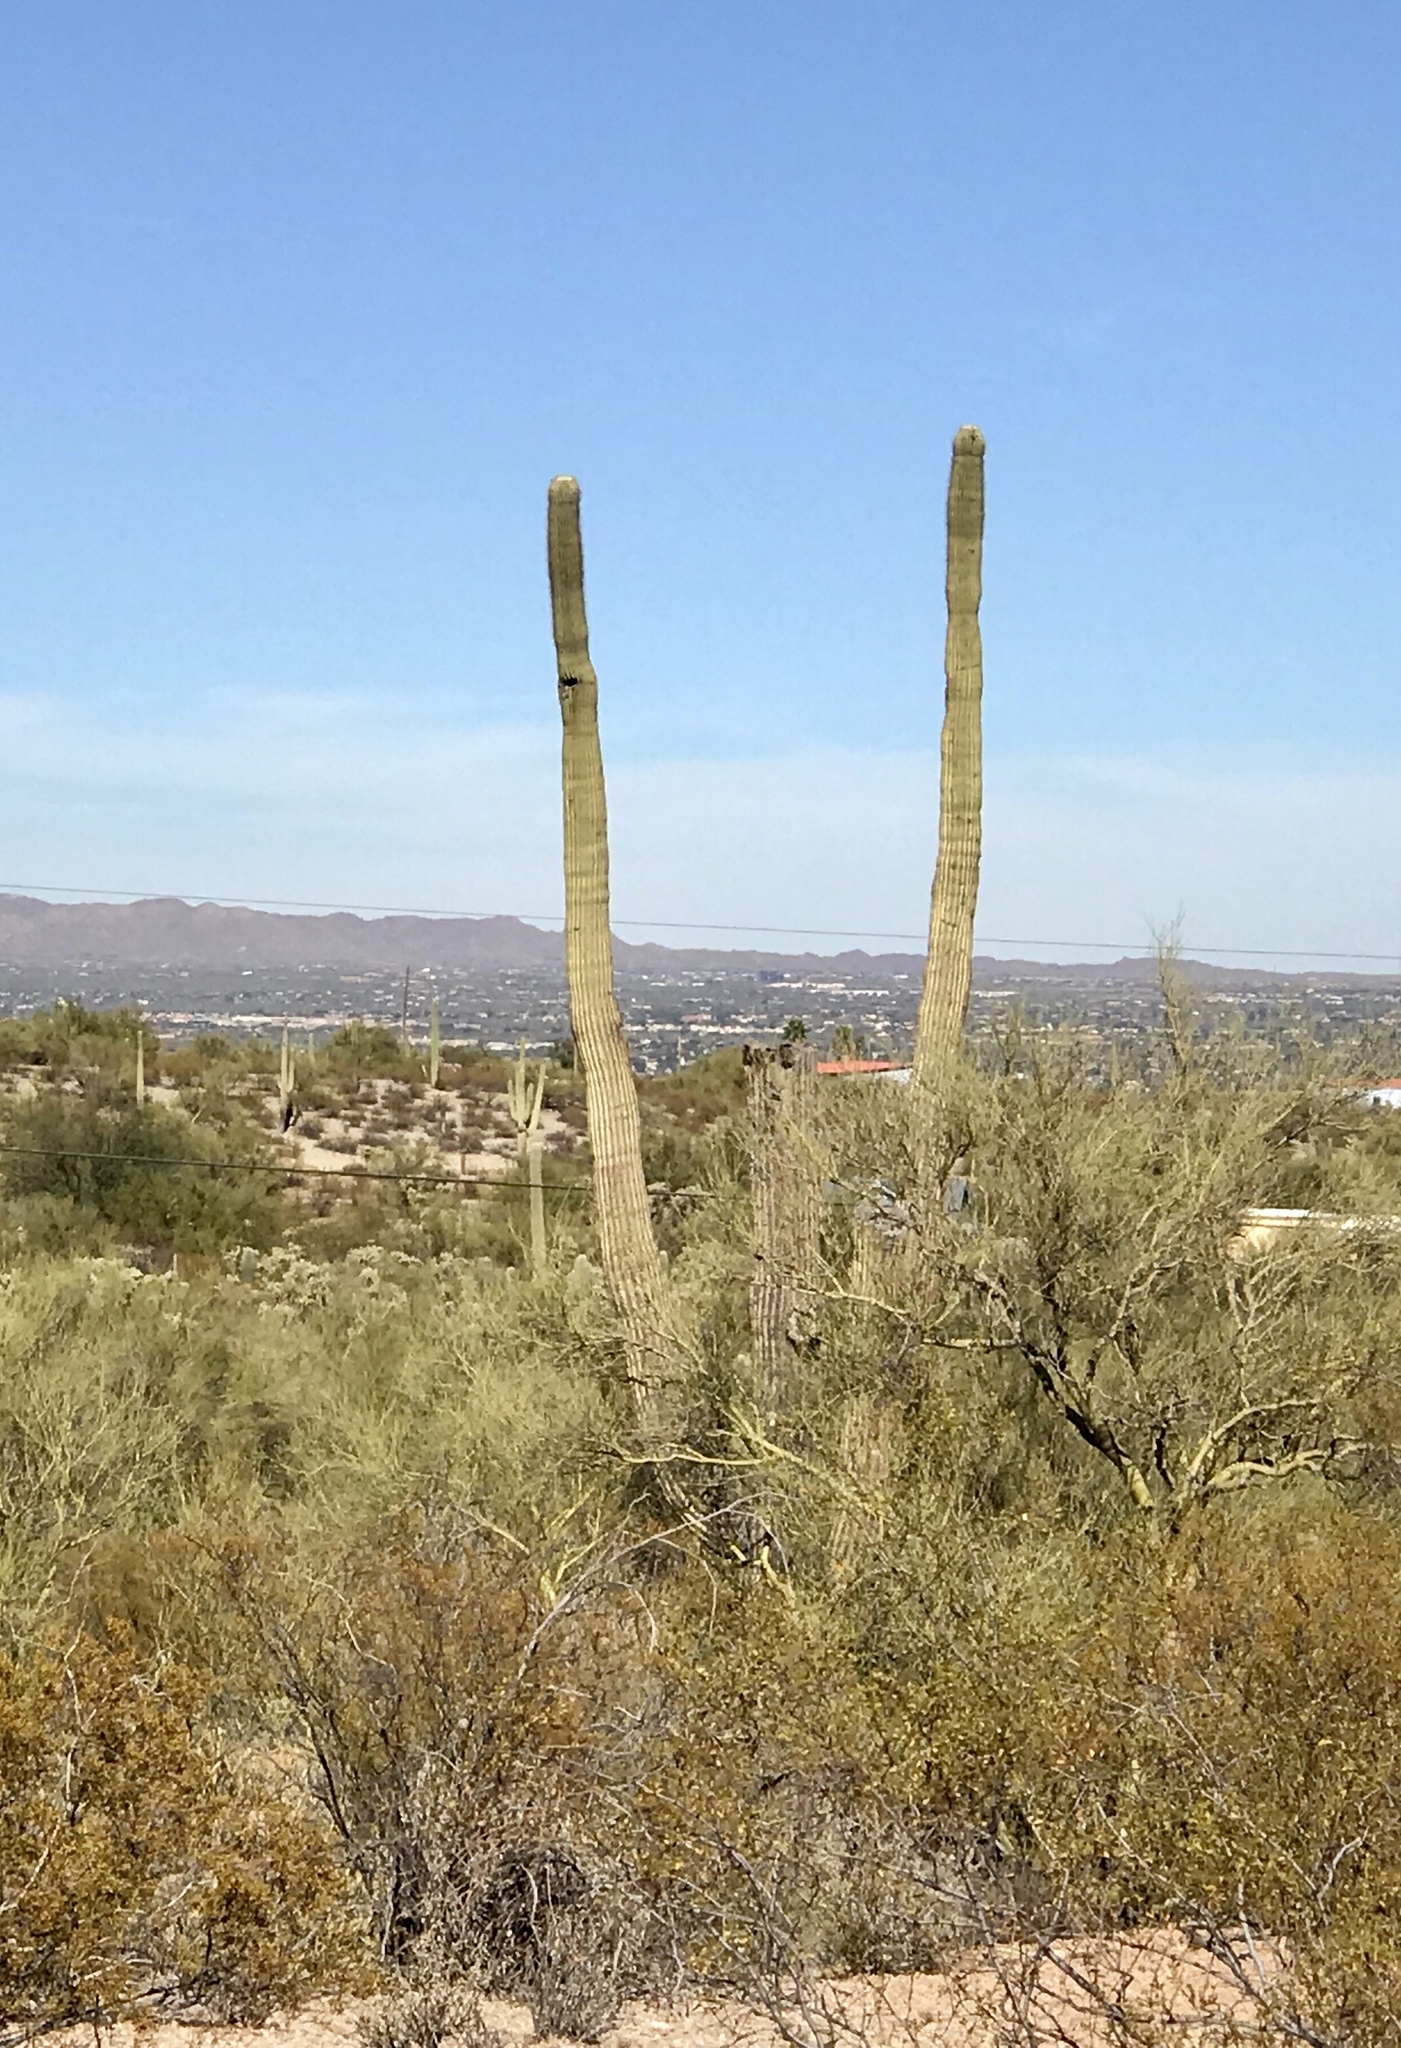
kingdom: Plantae
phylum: Tracheophyta
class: Magnoliopsida
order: Caryophyllales
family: Cactaceae
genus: Carnegiea
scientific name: Carnegiea gigantea
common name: Saguaro
